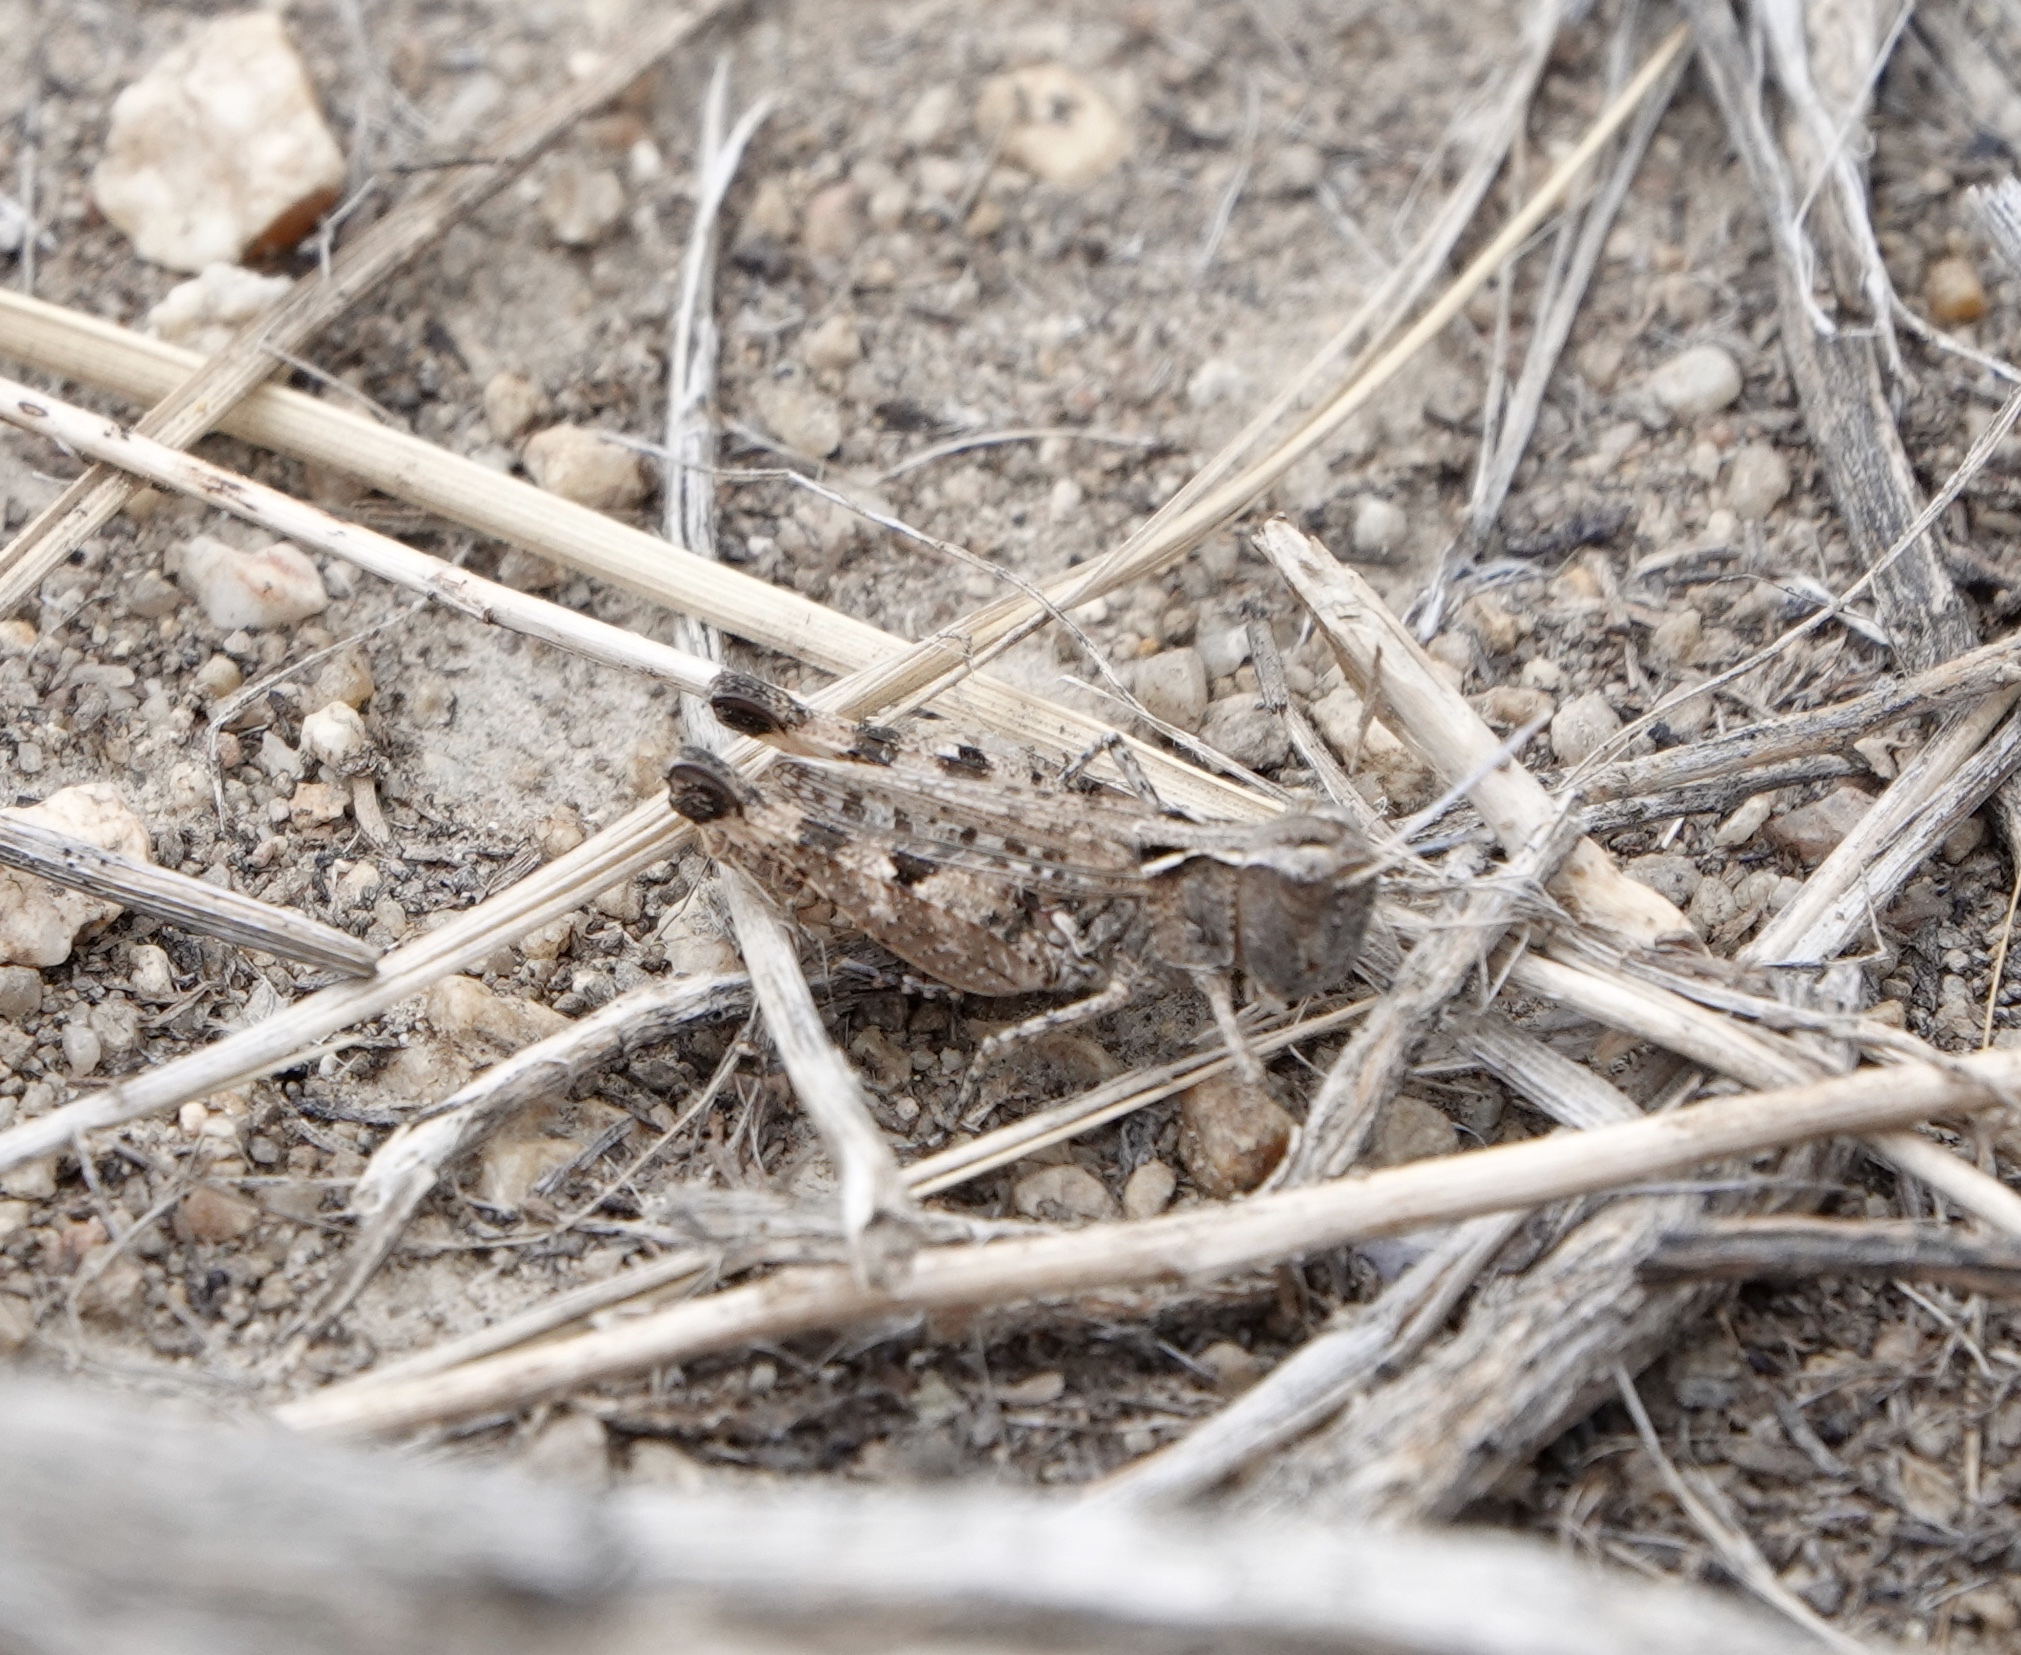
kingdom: Animalia
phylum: Arthropoda
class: Insecta
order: Orthoptera
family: Acrididae
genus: Ageneotettix
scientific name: Ageneotettix deorum
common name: White-whiskered grasshopper
